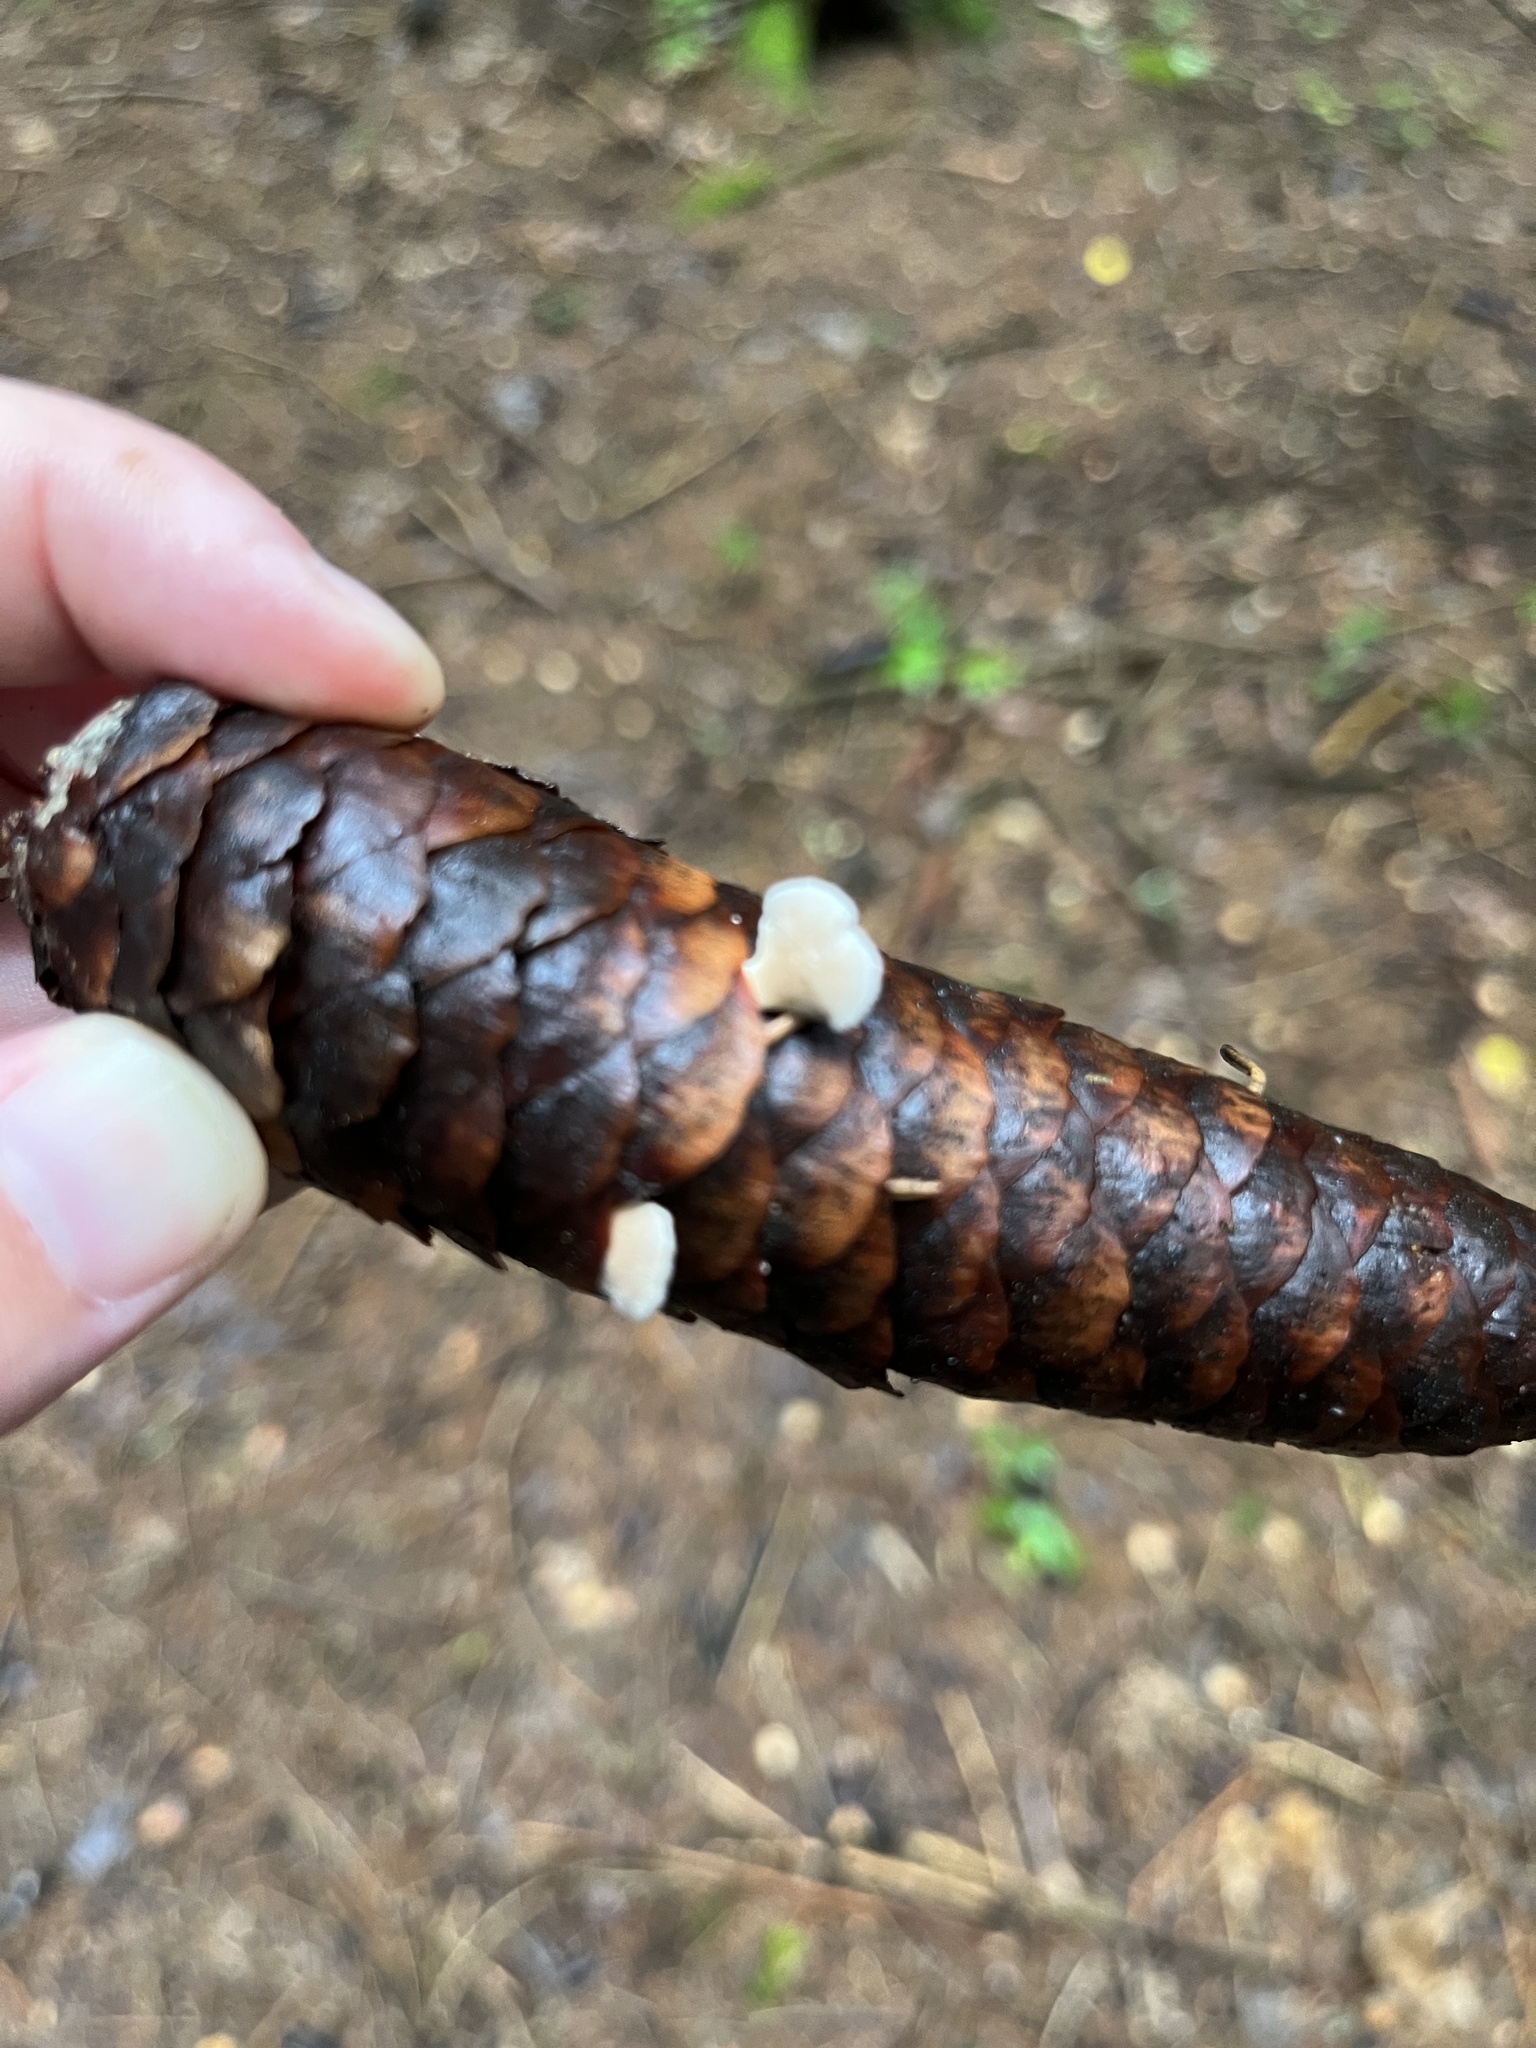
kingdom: Fungi
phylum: Basidiomycota
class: Agaricomycetes
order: Agaricales
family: Schizophyllaceae
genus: Schizophyllum
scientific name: Schizophyllum commune
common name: Common porecrust
